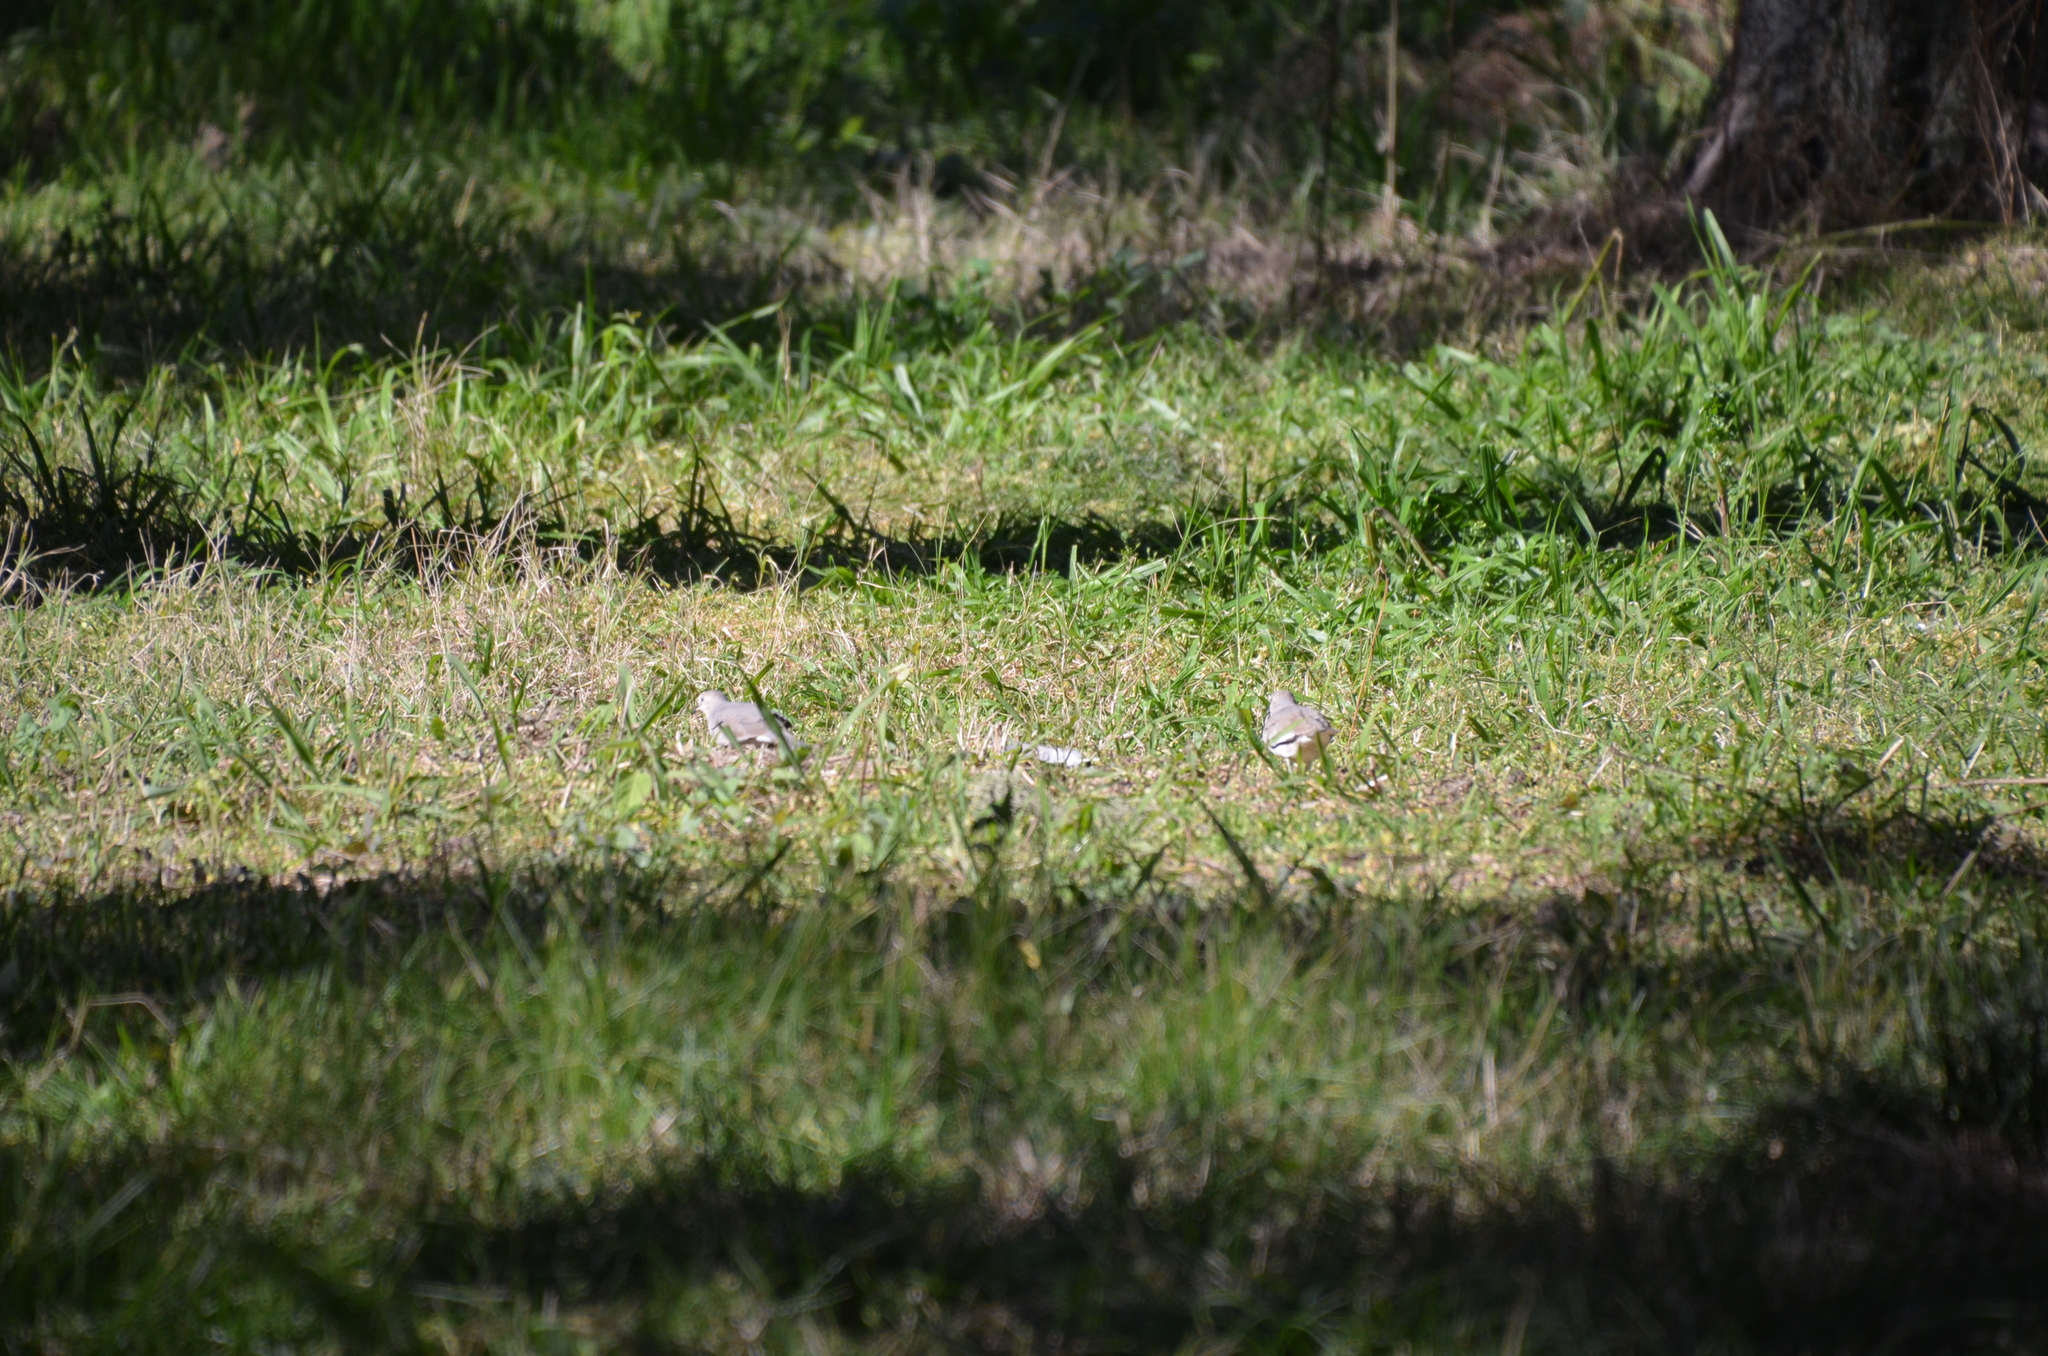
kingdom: Animalia
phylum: Chordata
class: Aves
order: Columbiformes
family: Columbidae
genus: Columbina
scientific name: Columbina picui
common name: Picui ground dove
